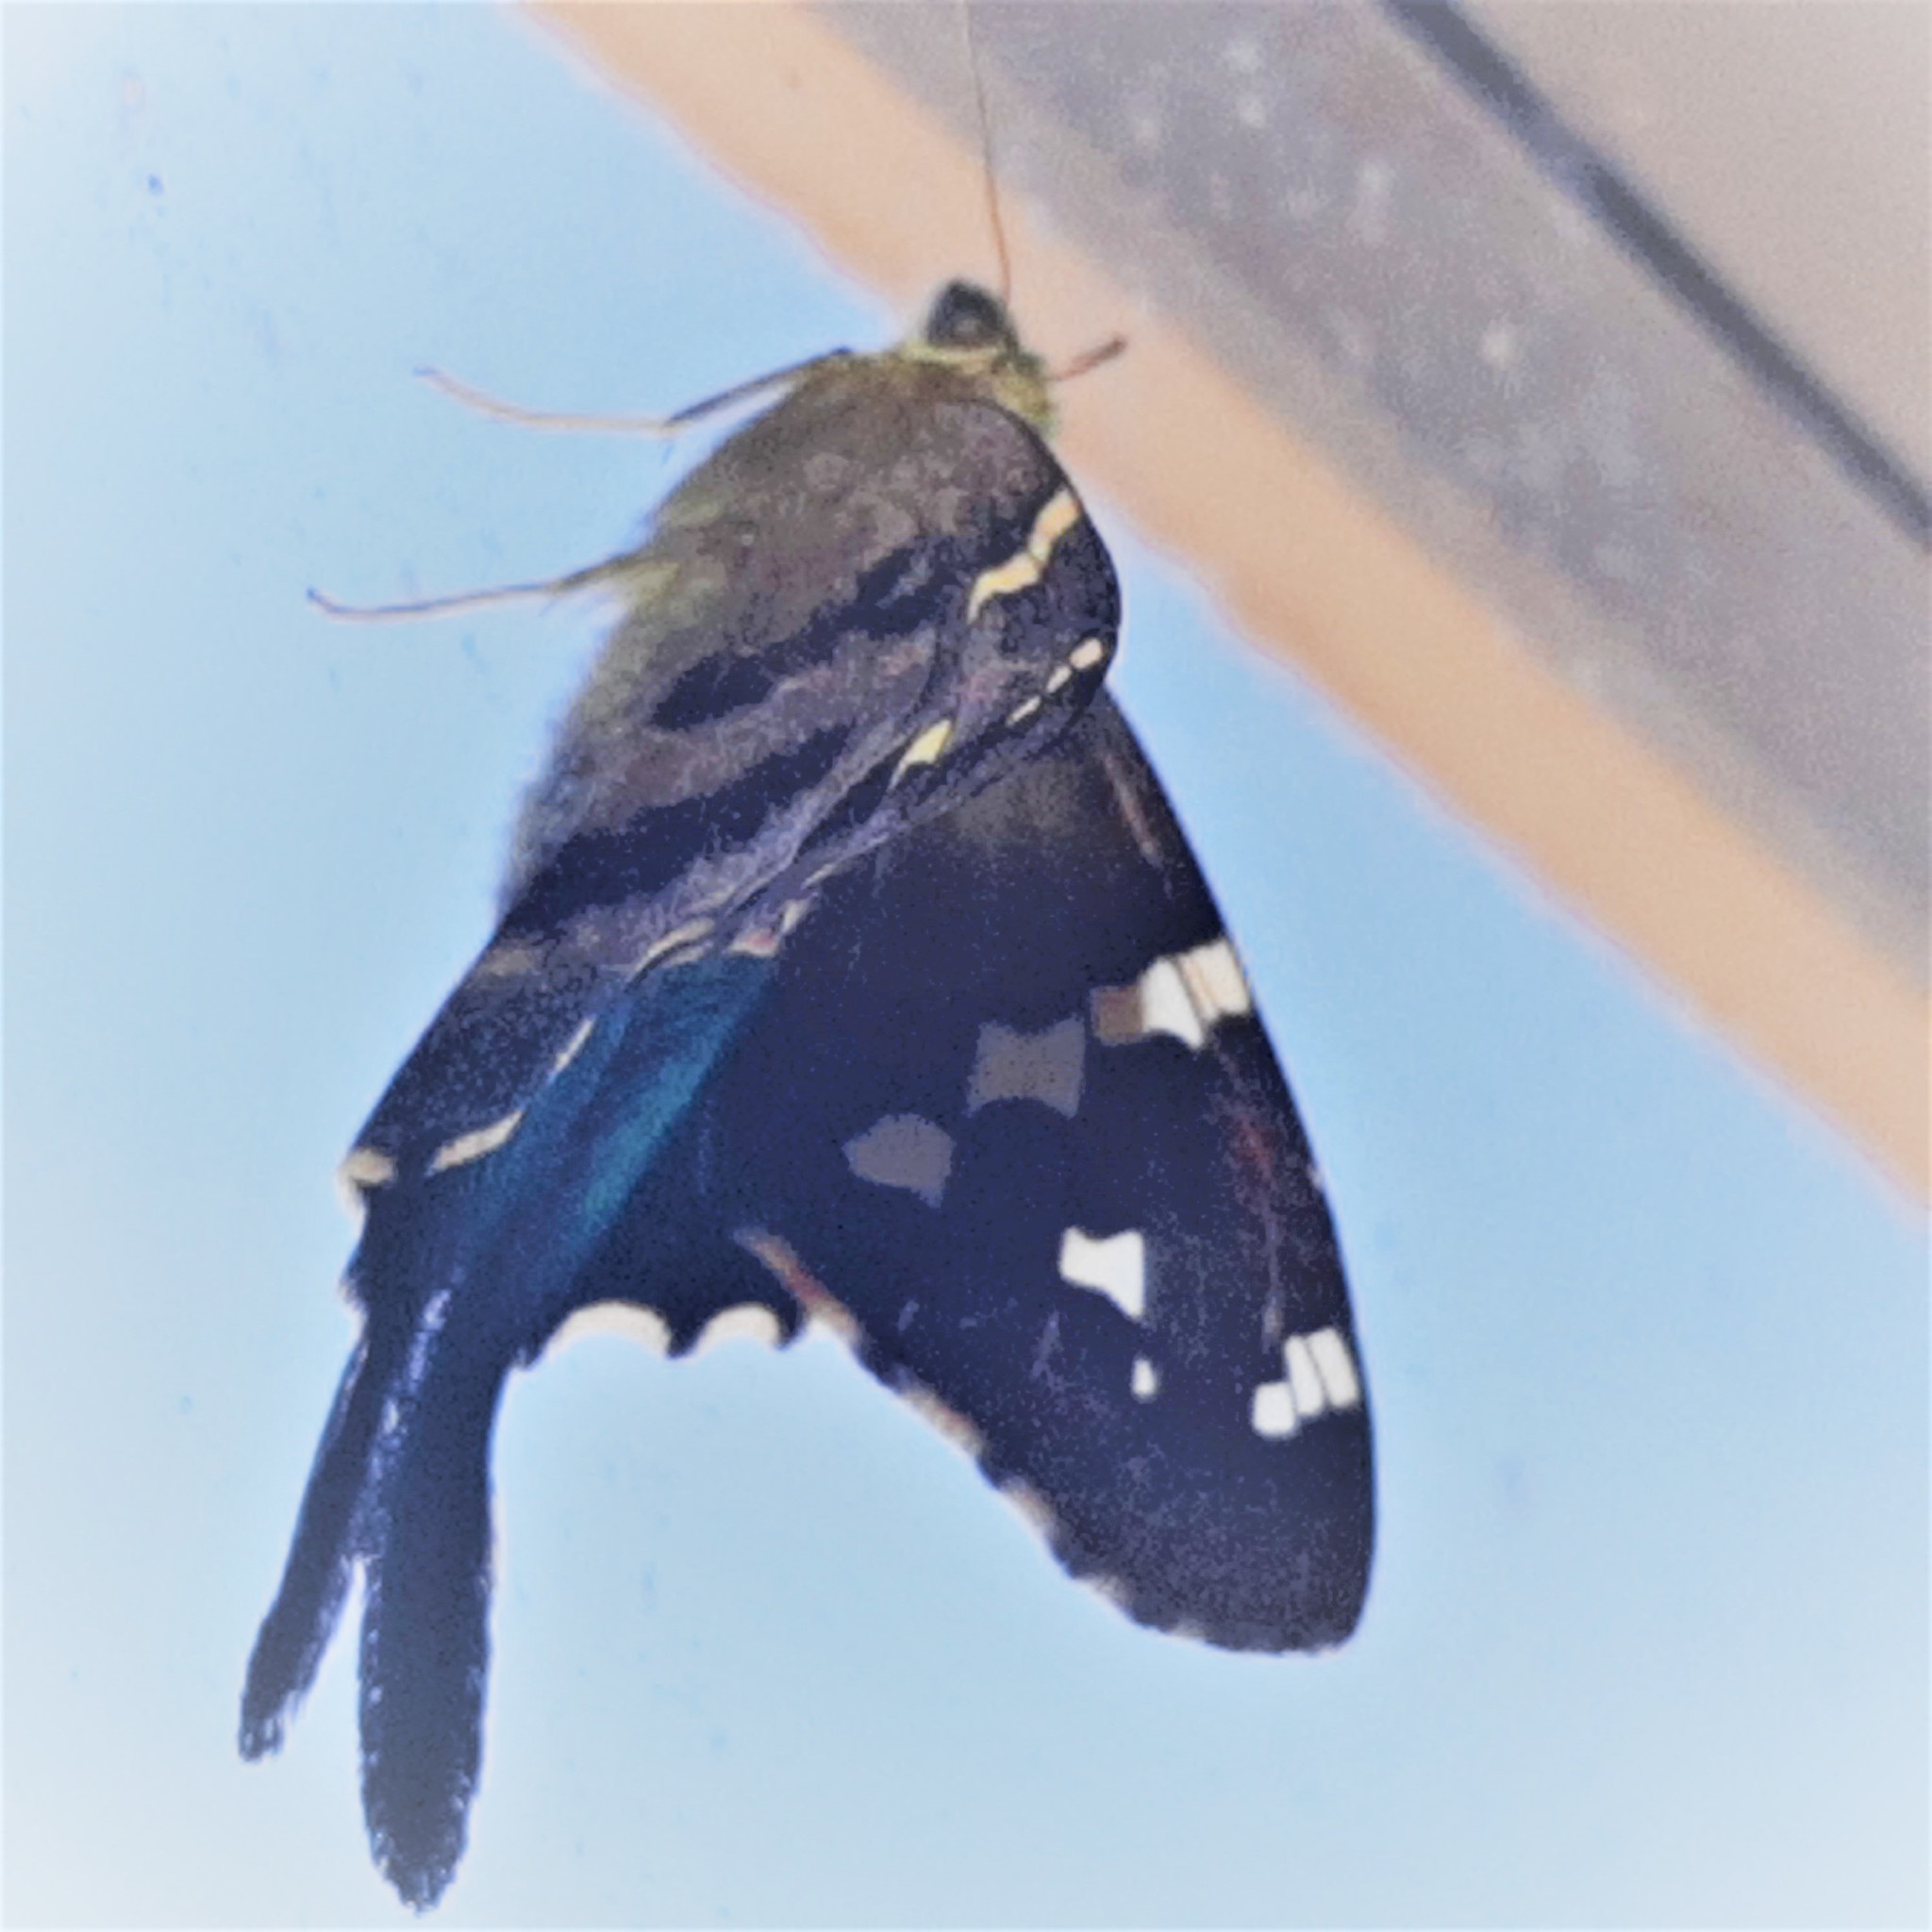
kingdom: Animalia
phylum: Arthropoda
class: Insecta
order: Lepidoptera
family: Hesperiidae
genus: Urbanus
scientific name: Urbanus proteus
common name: Long-tailed skipper
